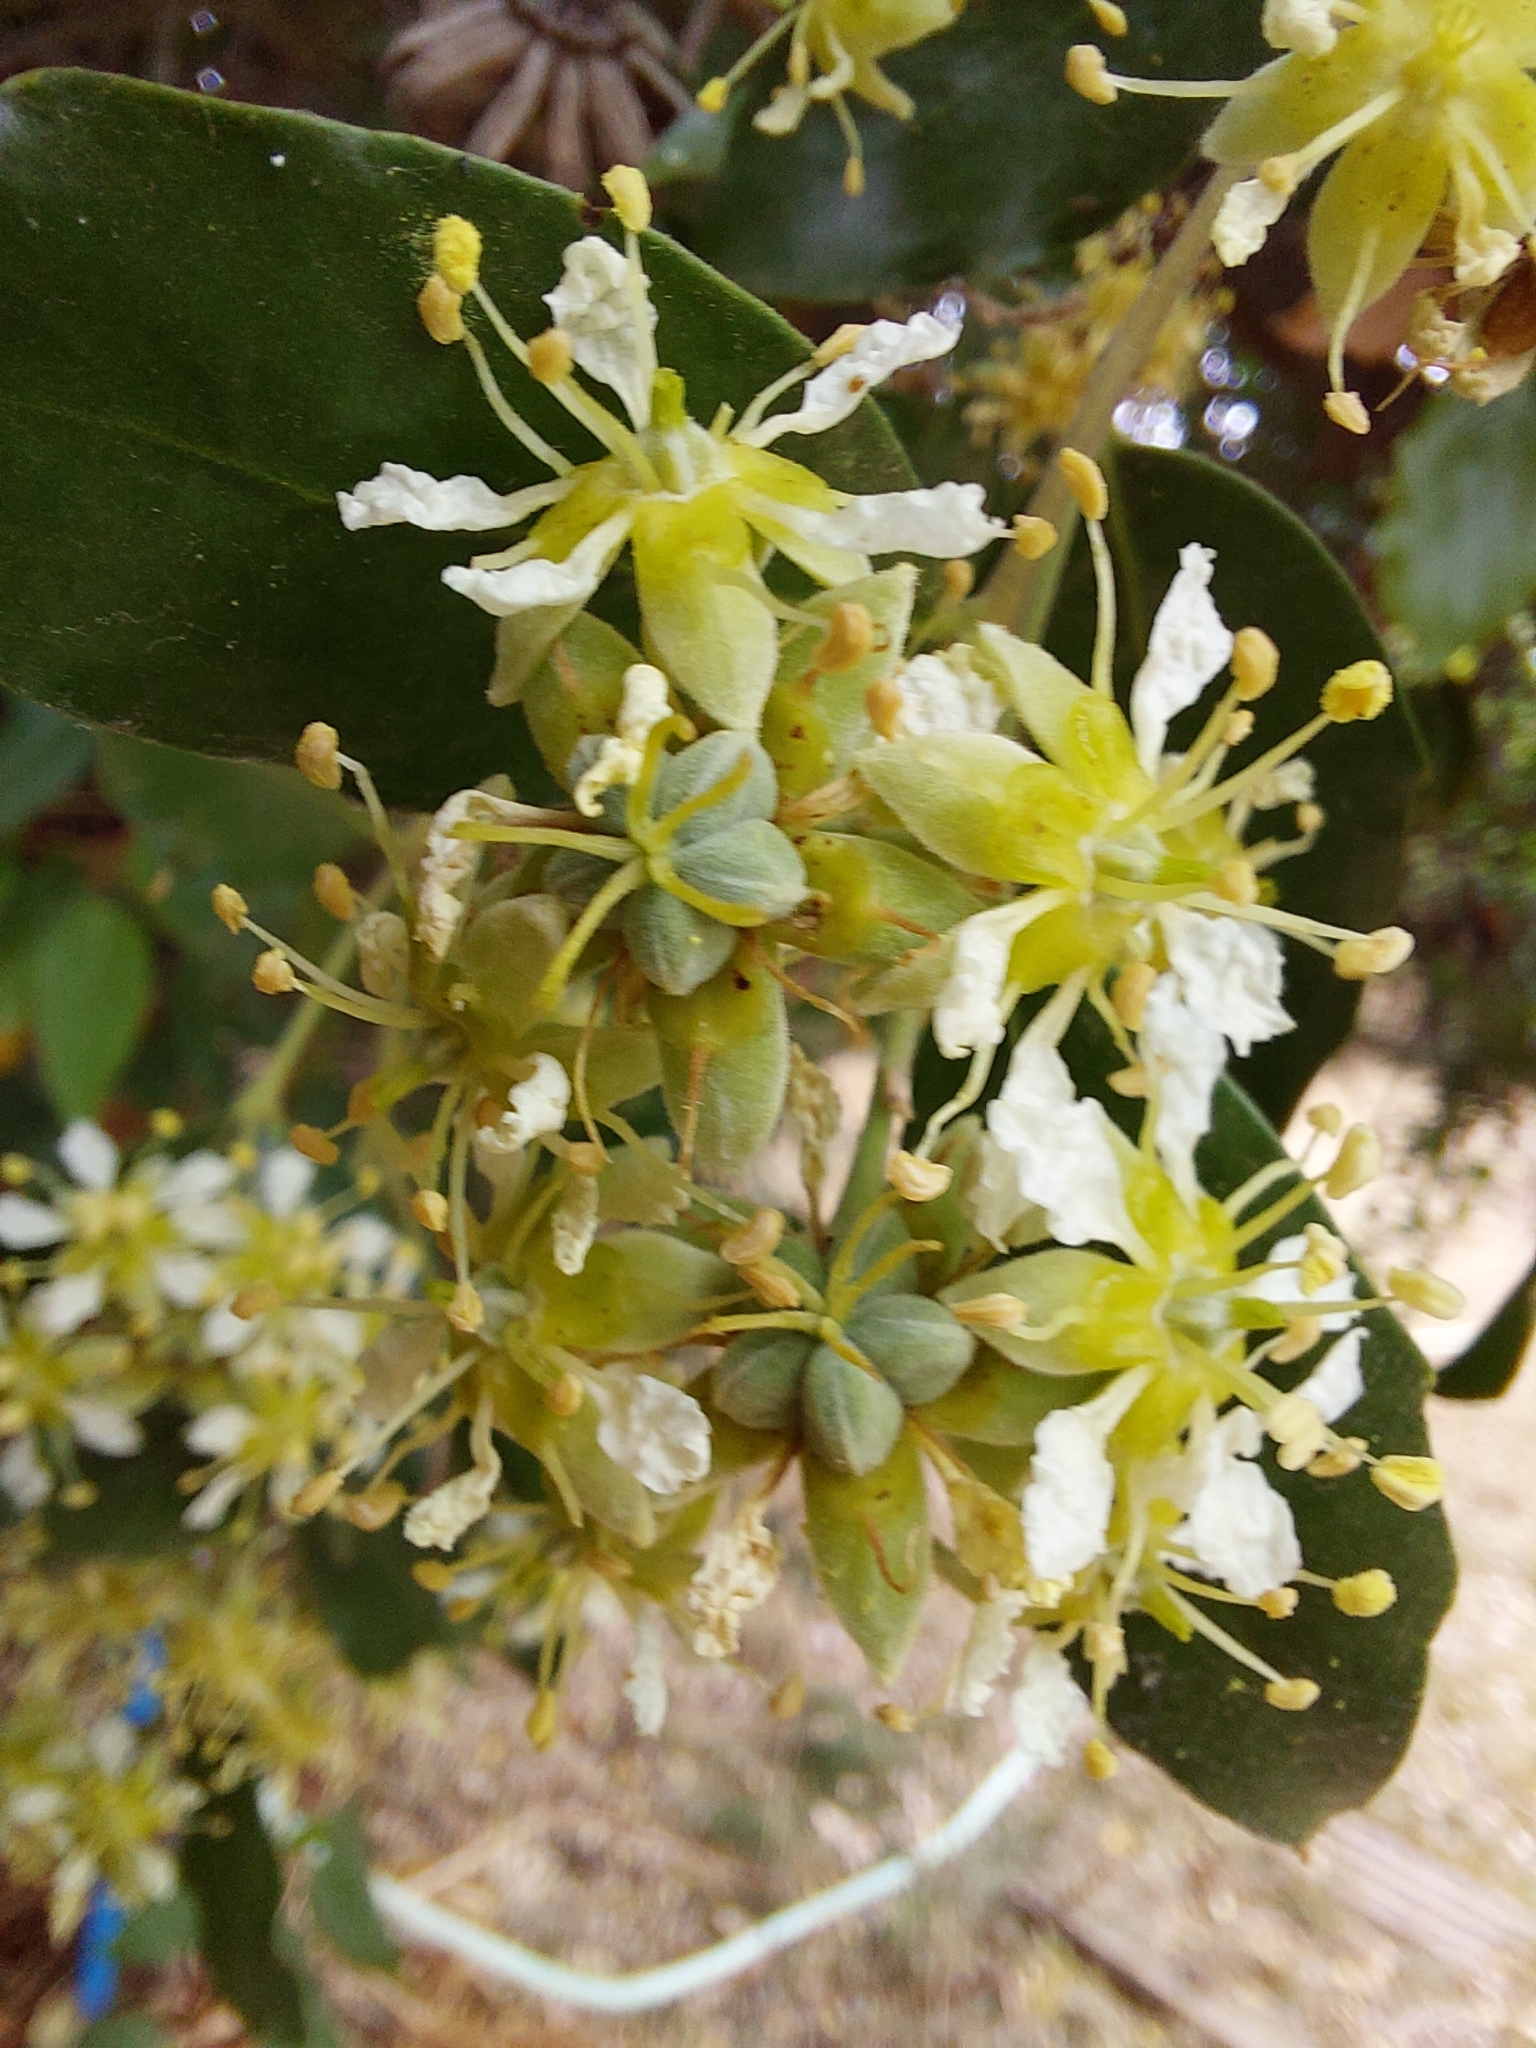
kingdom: Plantae
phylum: Tracheophyta
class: Magnoliopsida
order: Fabales
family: Quillajaceae
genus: Quillaja
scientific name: Quillaja saponaria
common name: Murillo's-bark
